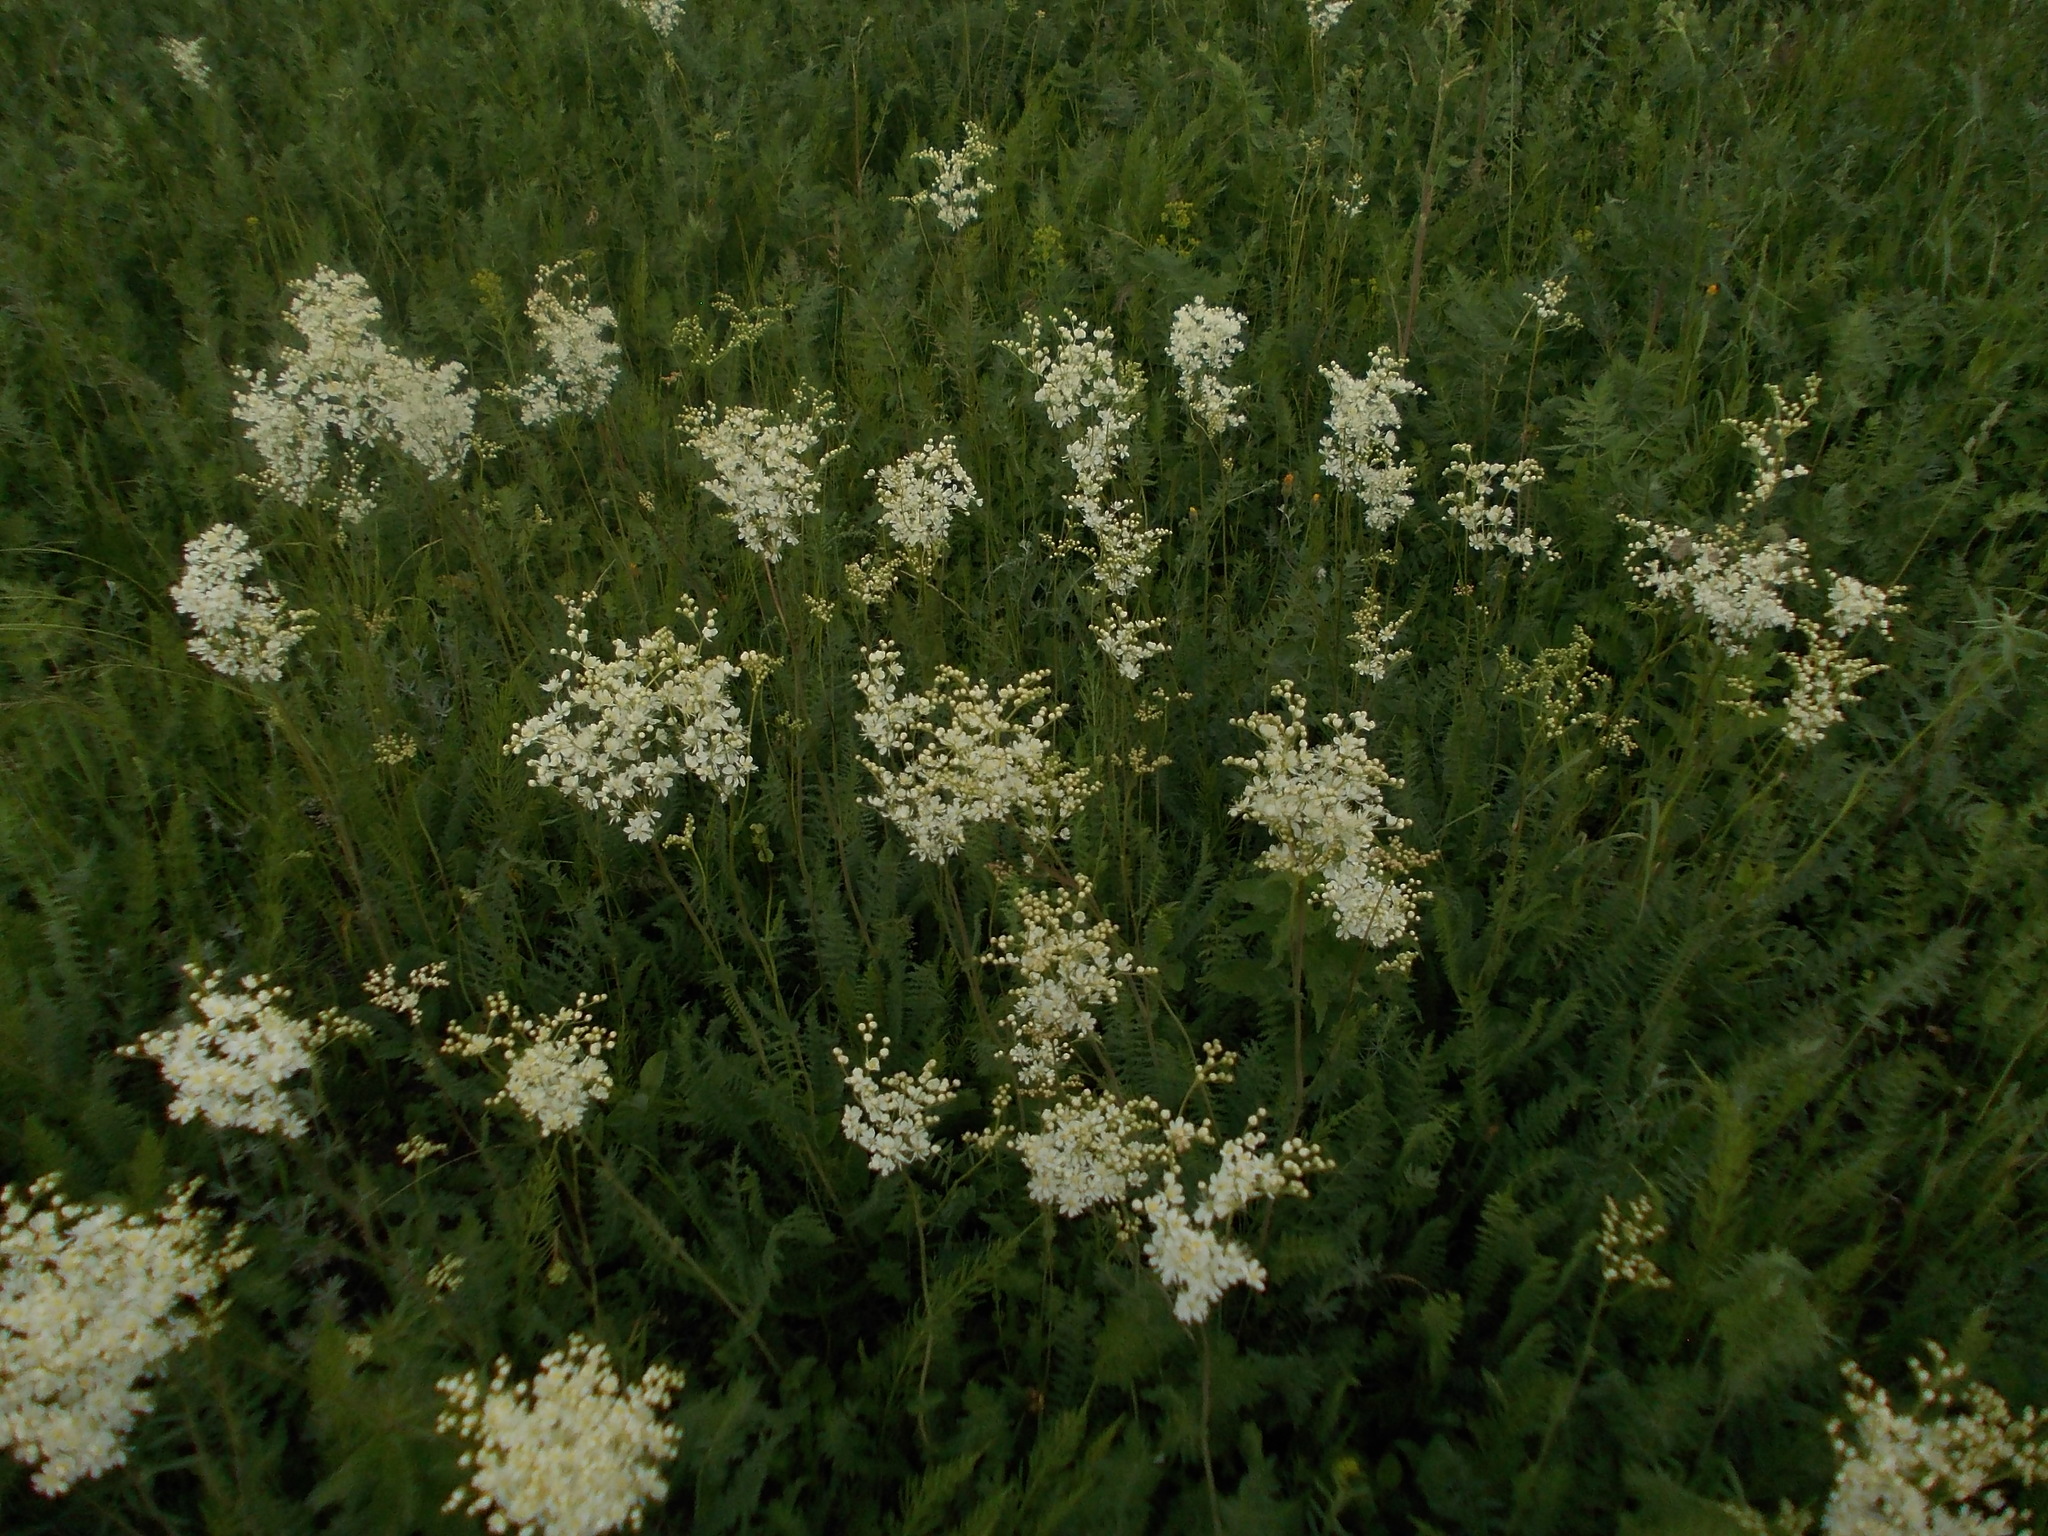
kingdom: Plantae
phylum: Tracheophyta
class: Magnoliopsida
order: Rosales
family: Rosaceae
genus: Filipendula
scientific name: Filipendula vulgaris
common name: Dropwort
